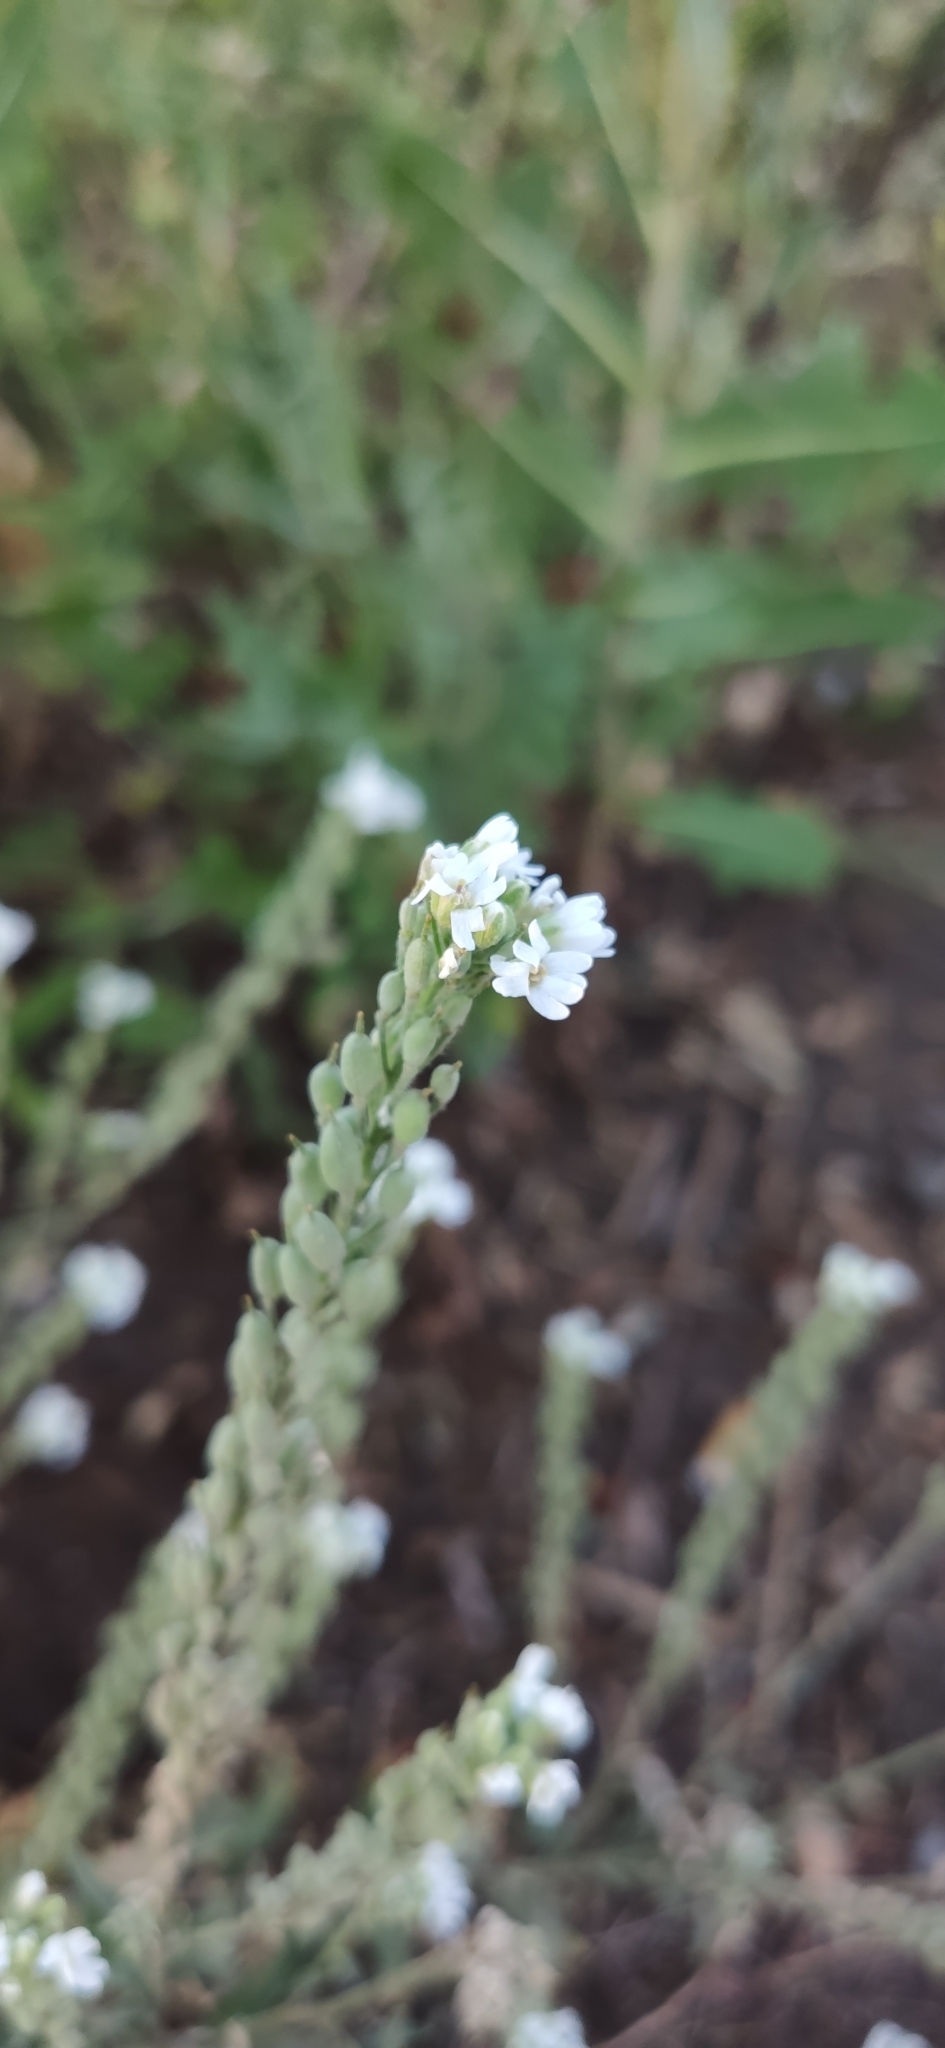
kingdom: Plantae
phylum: Tracheophyta
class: Magnoliopsida
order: Brassicales
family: Brassicaceae
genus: Berteroa
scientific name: Berteroa incana
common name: Hoary alison
